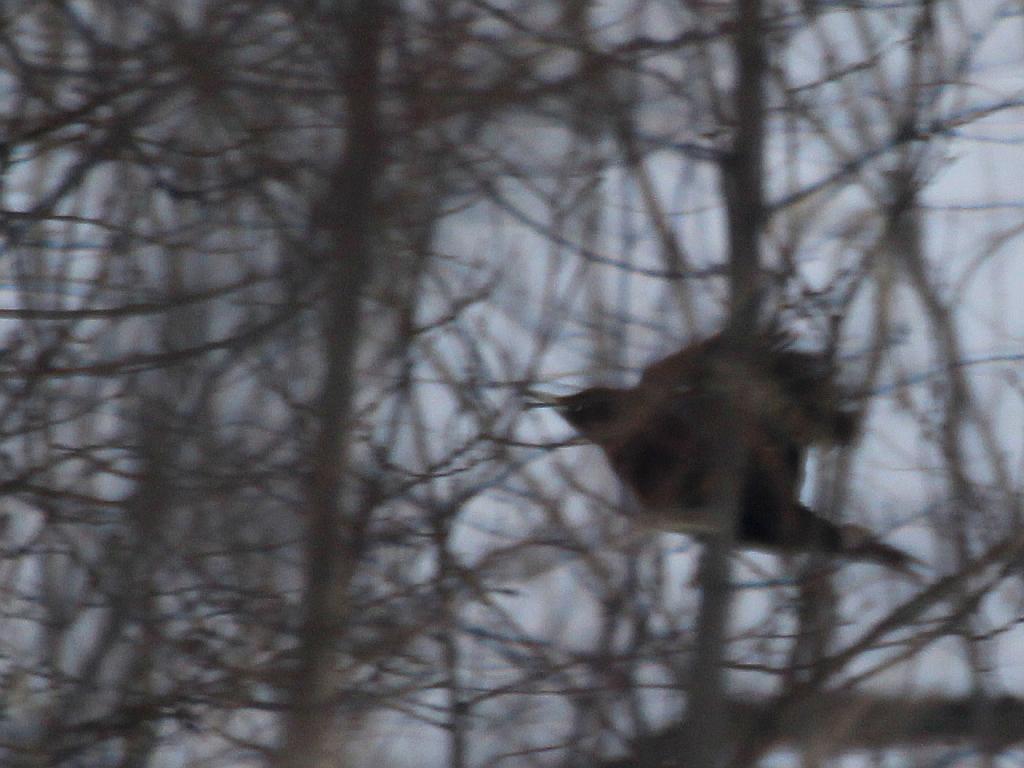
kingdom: Animalia
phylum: Chordata
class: Aves
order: Piciformes
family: Picidae
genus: Dryocopus
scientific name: Dryocopus martius
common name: Black woodpecker
